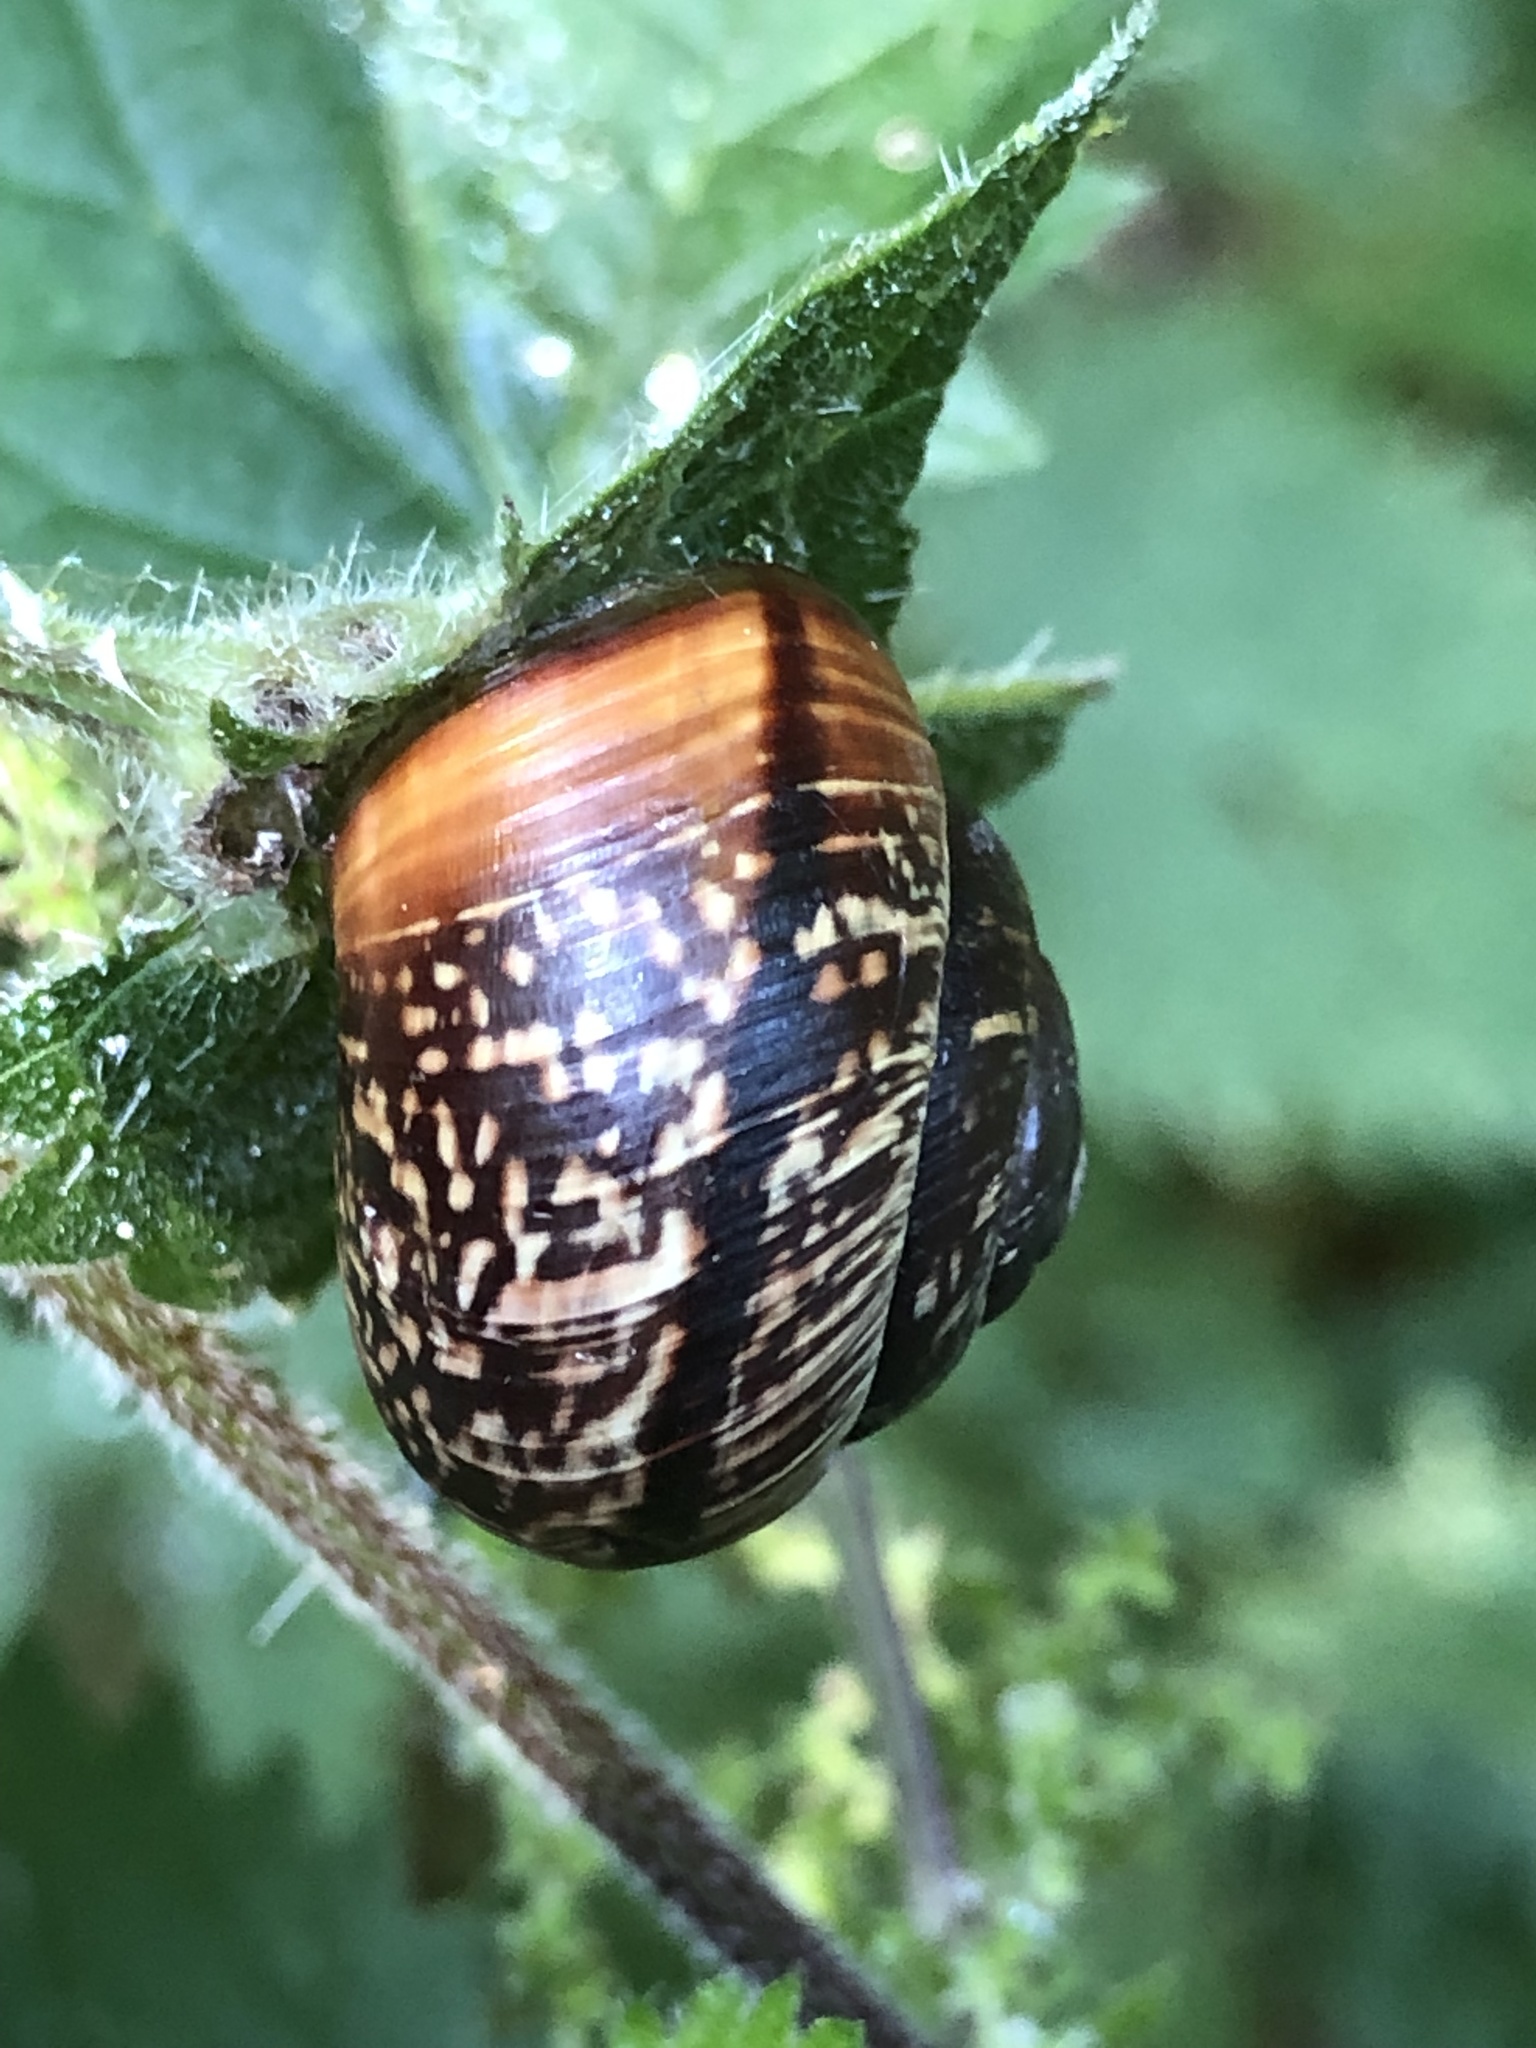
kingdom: Animalia
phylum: Mollusca
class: Gastropoda
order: Stylommatophora
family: Helicidae
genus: Arianta
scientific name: Arianta arbustorum
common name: Copse snail
